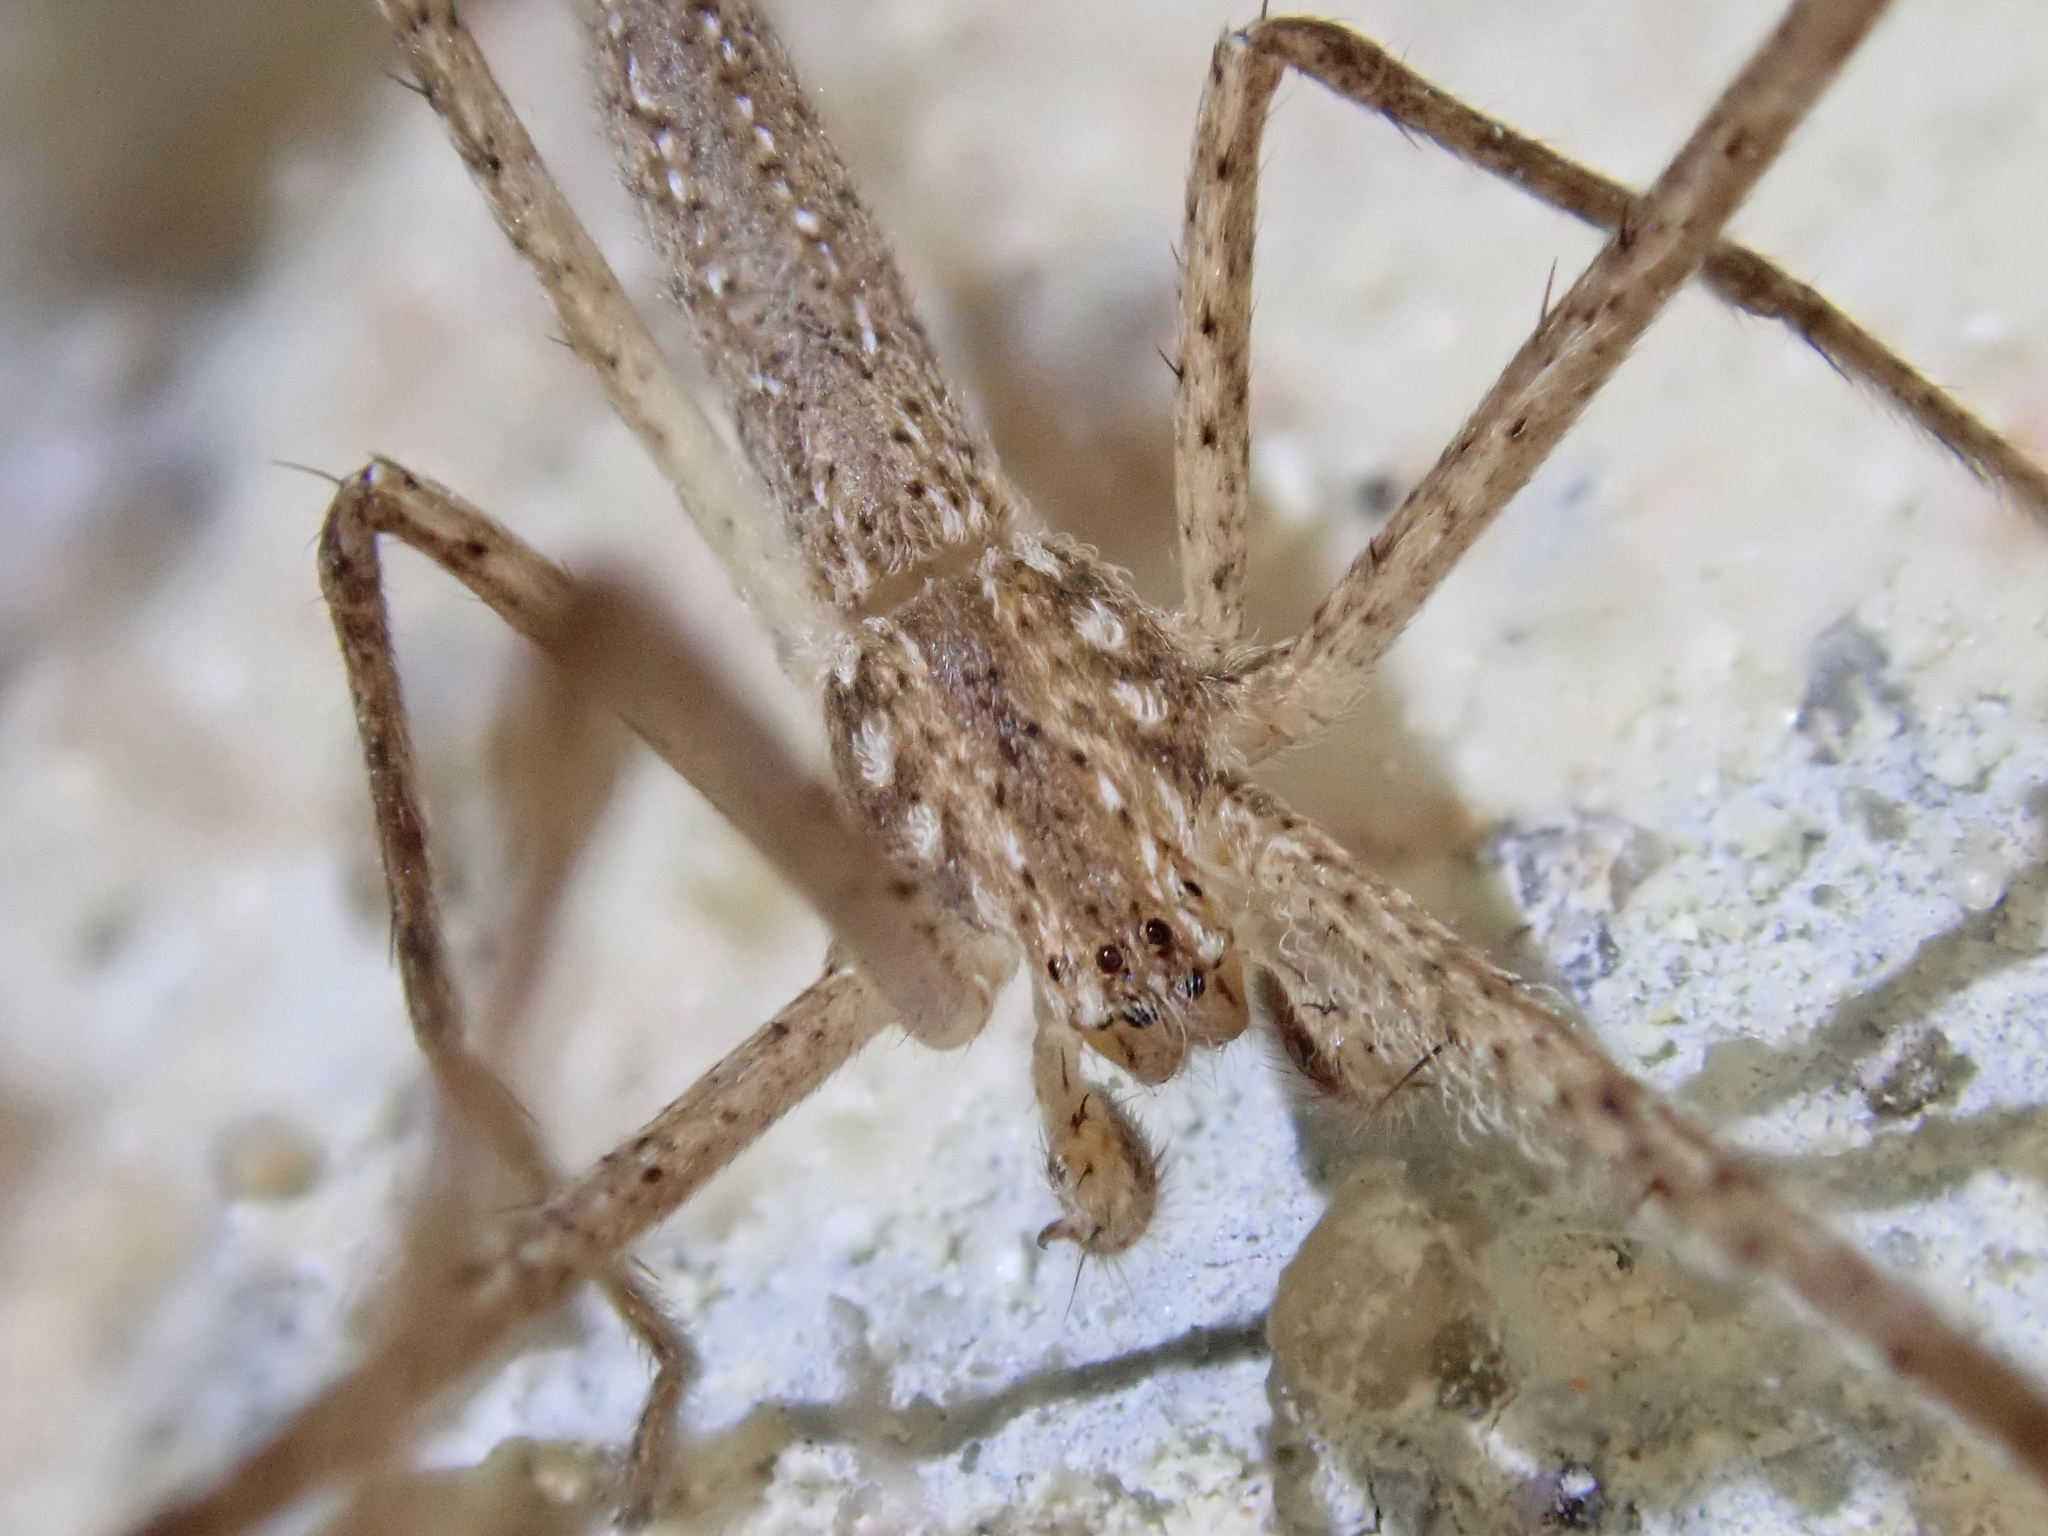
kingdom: Animalia
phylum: Arthropoda
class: Arachnida
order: Araneae
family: Sparassidae
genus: Quemedice
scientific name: Quemedice piracuruca
